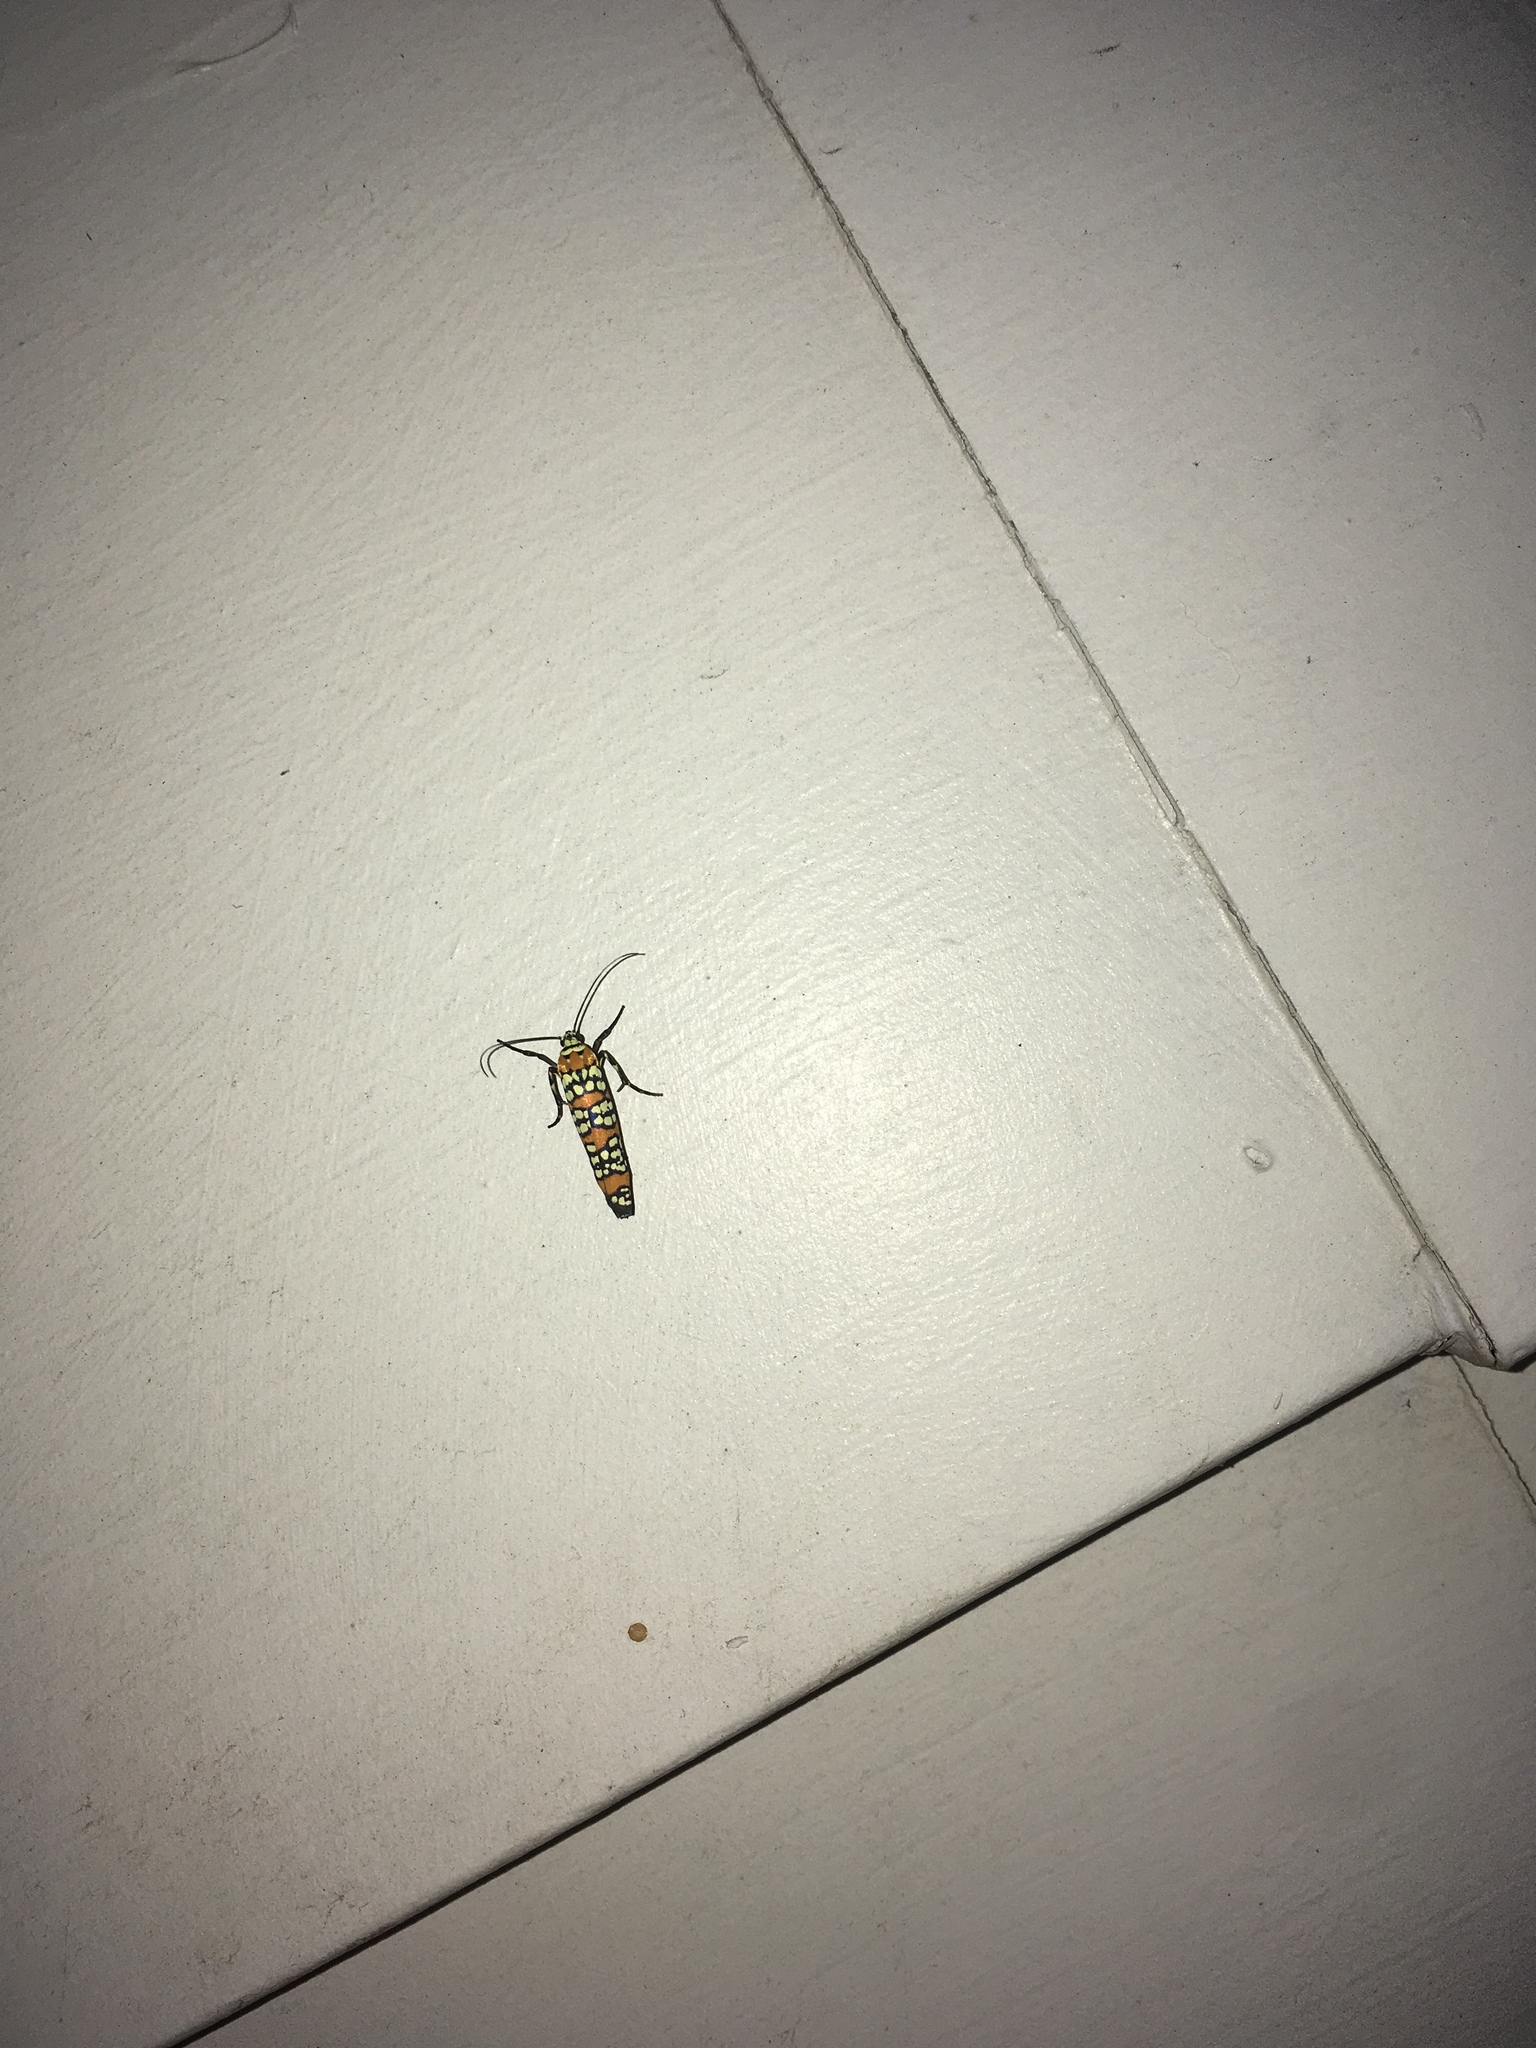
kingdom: Animalia
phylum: Arthropoda
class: Insecta
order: Lepidoptera
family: Attevidae
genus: Atteva
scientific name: Atteva punctella
